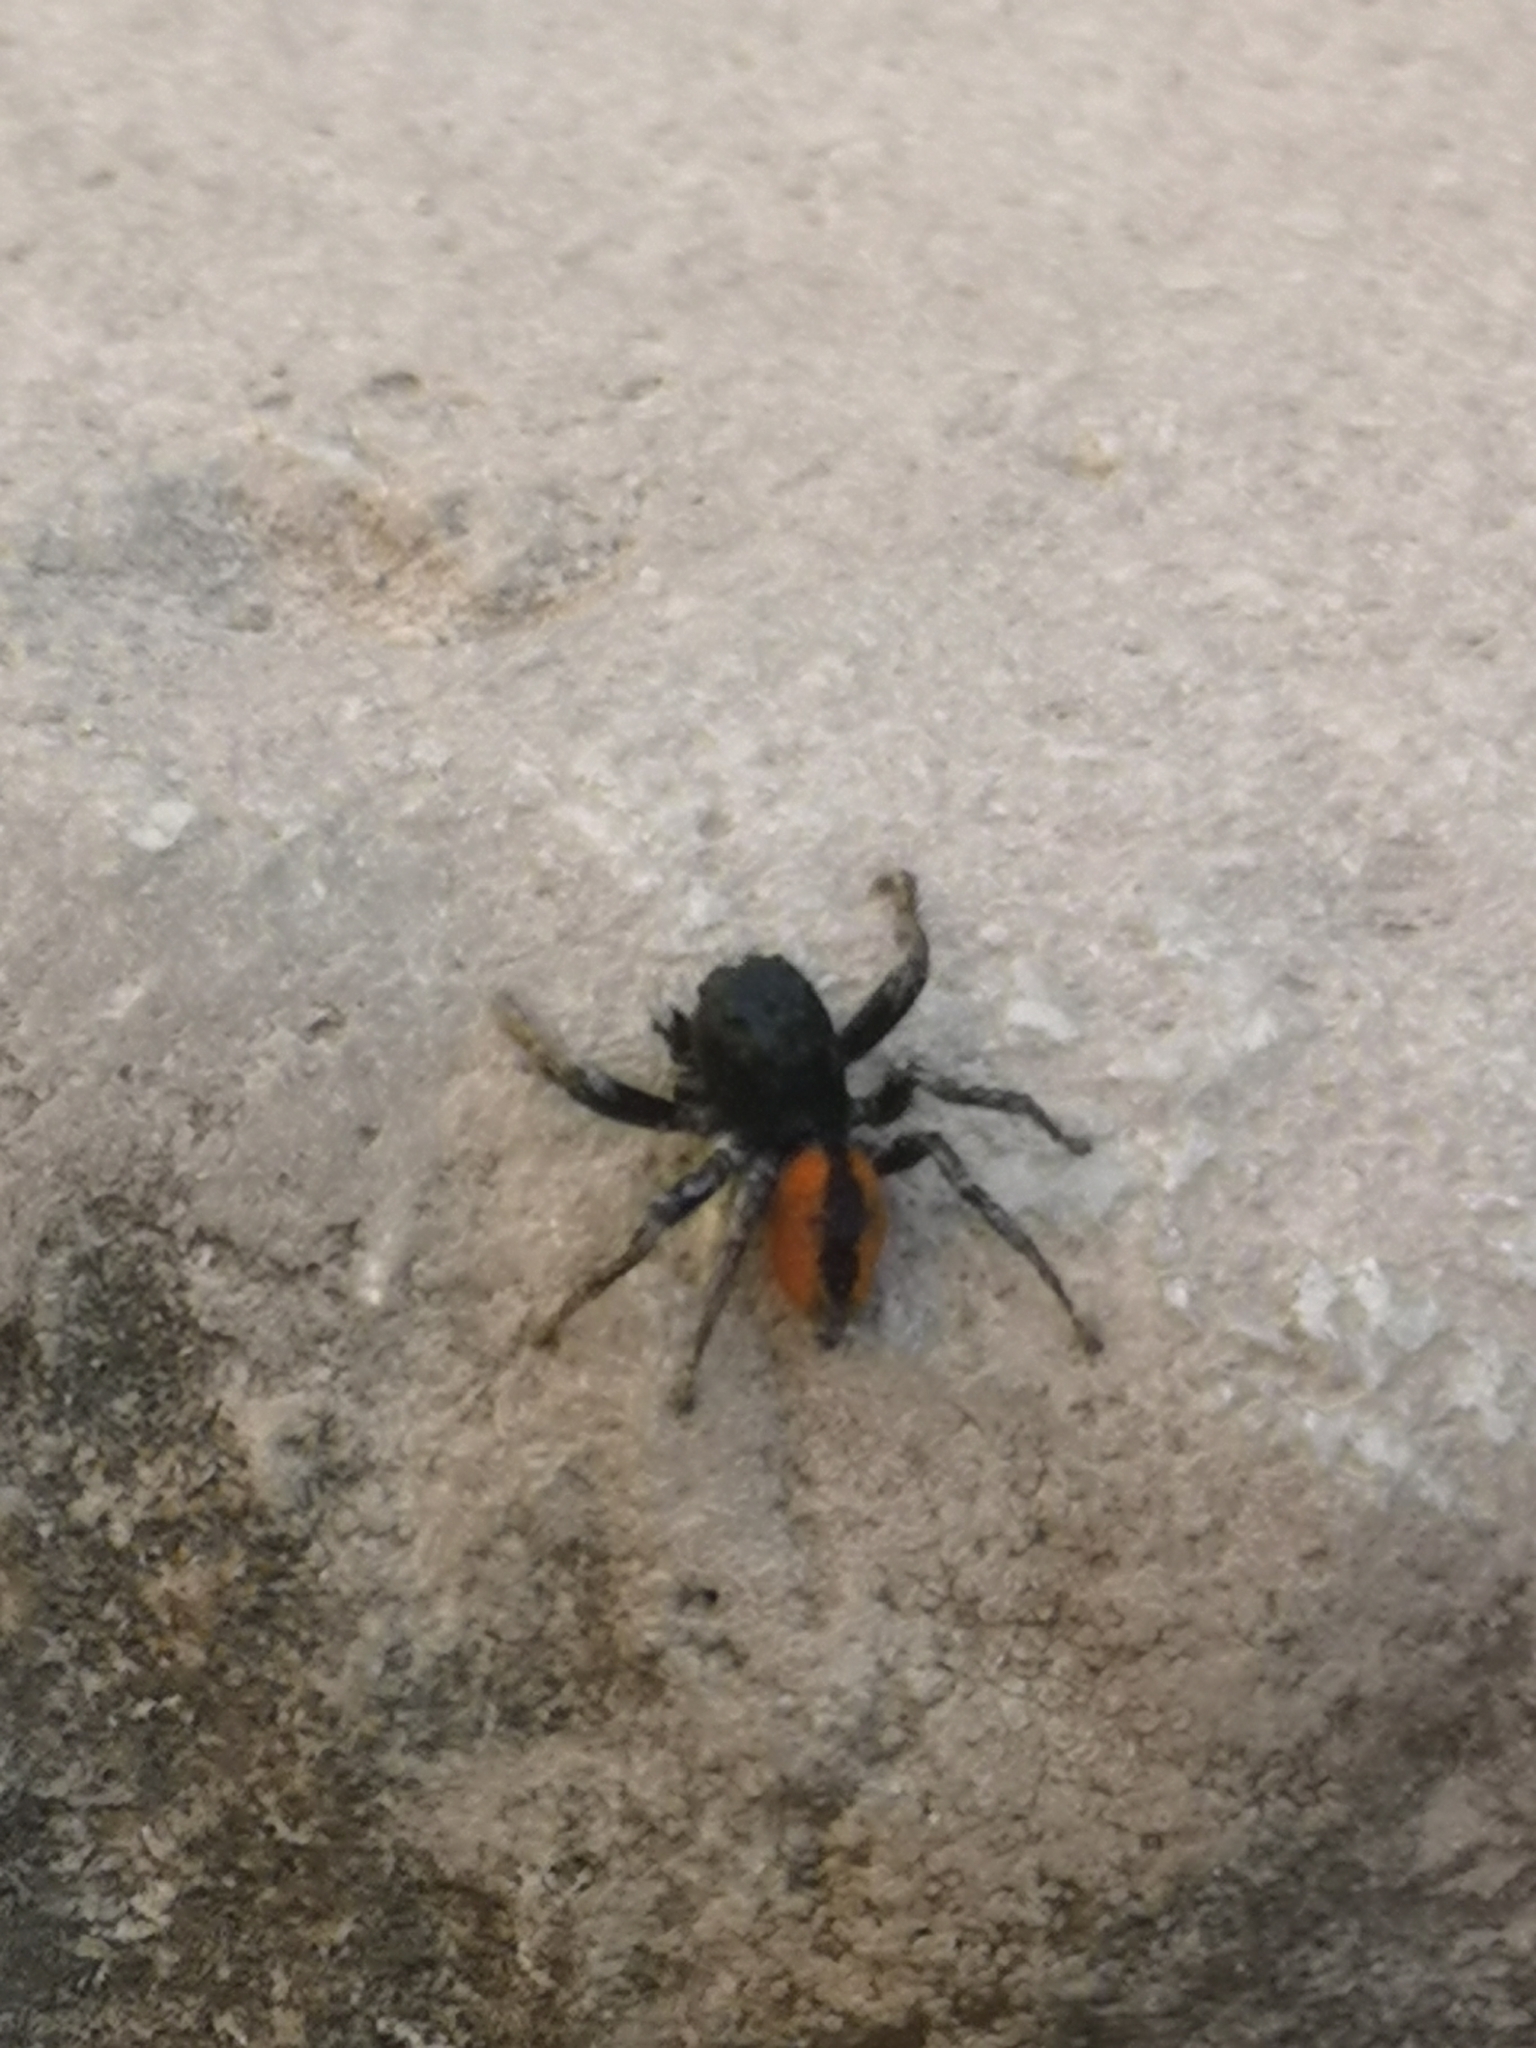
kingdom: Animalia
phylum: Arthropoda
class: Arachnida
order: Araneae
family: Salticidae
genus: Philaeus
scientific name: Philaeus chrysops
